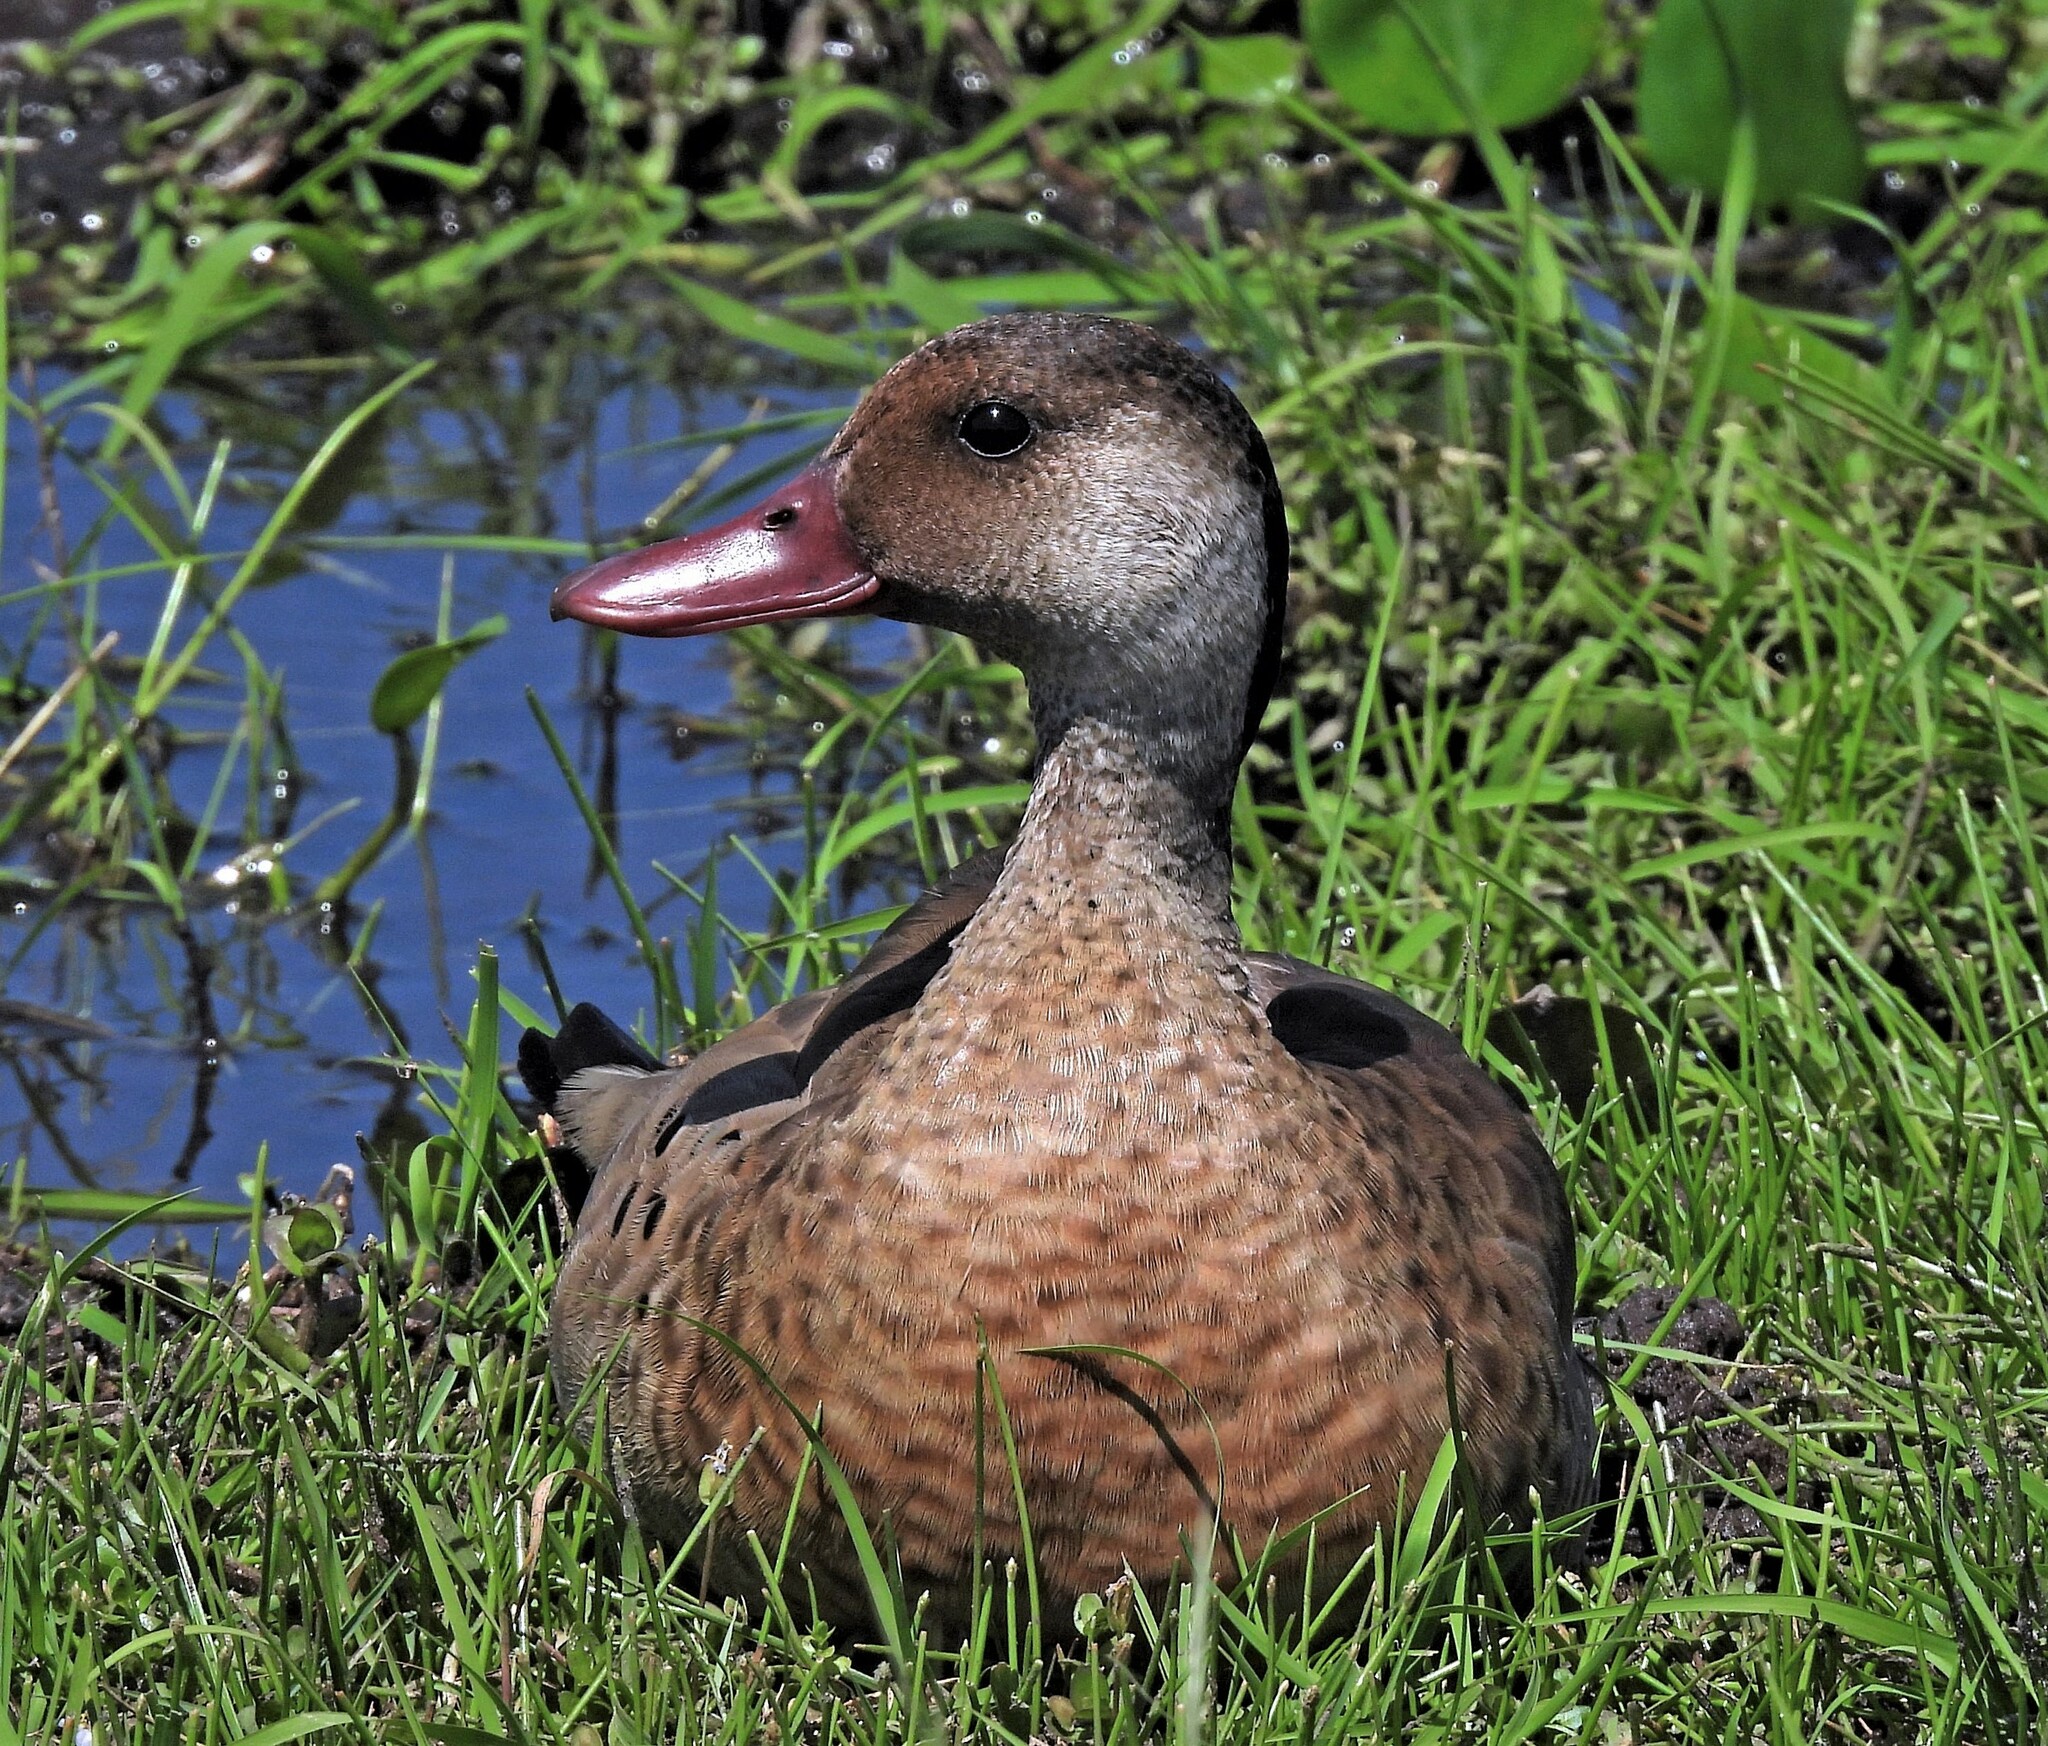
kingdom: Animalia
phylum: Chordata
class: Aves
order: Anseriformes
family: Anatidae
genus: Amazonetta
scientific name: Amazonetta brasiliensis
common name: Brazilian teal
